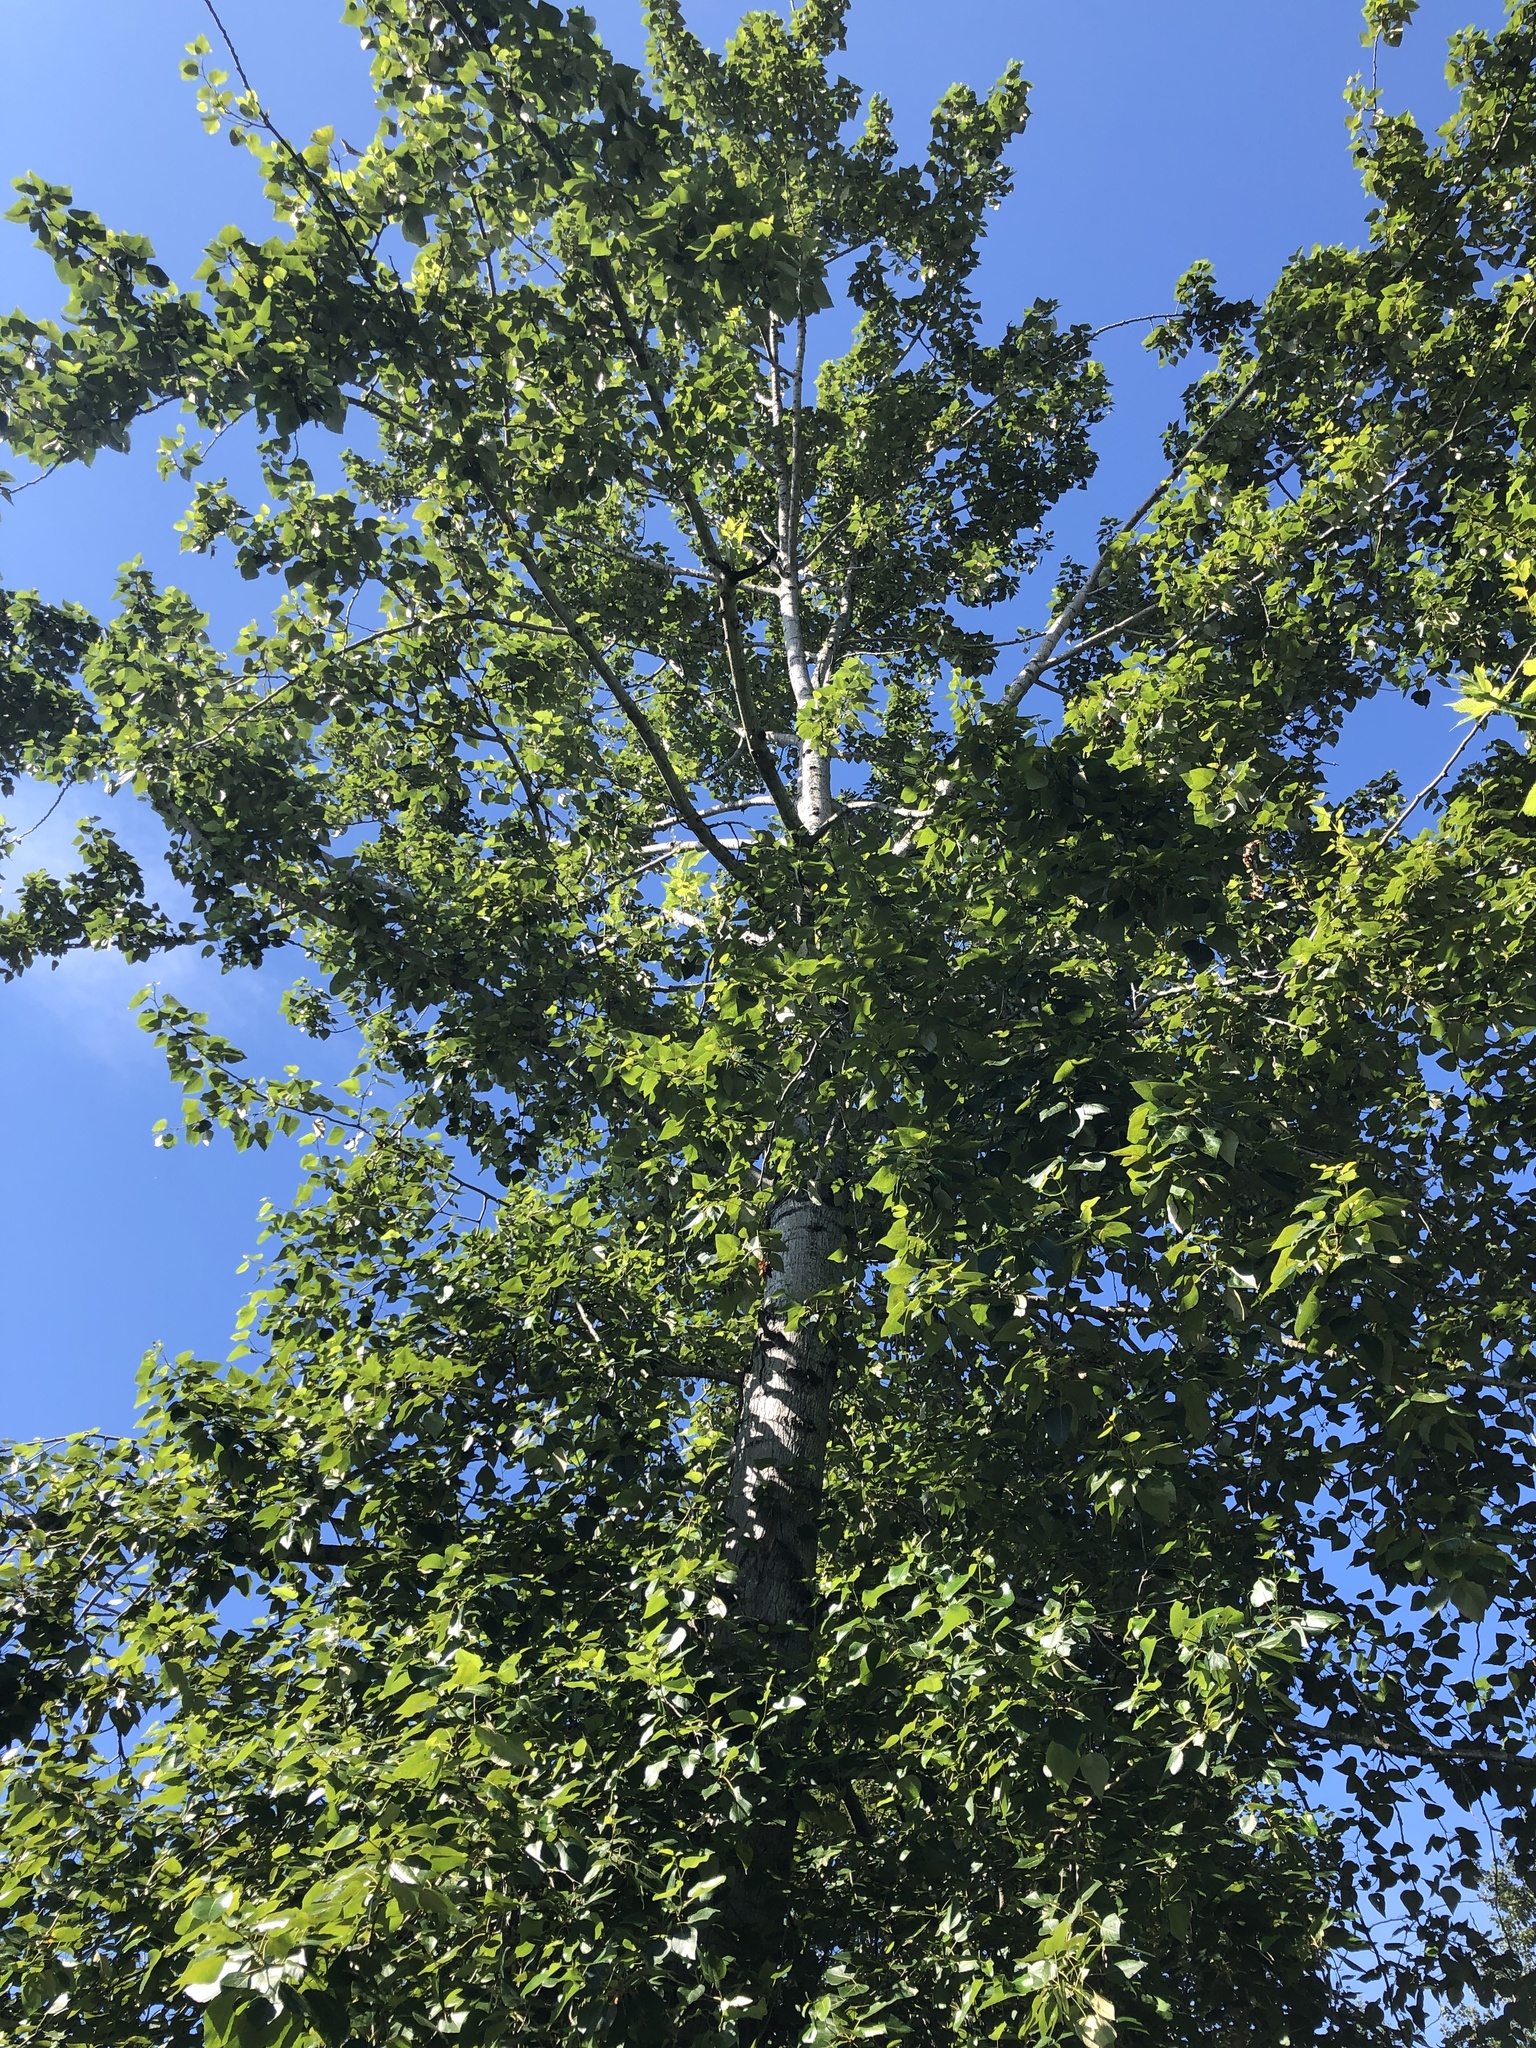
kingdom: Plantae
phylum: Tracheophyta
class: Magnoliopsida
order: Malpighiales
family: Salicaceae
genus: Populus
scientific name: Populus trichocarpa
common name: Black cottonwood
